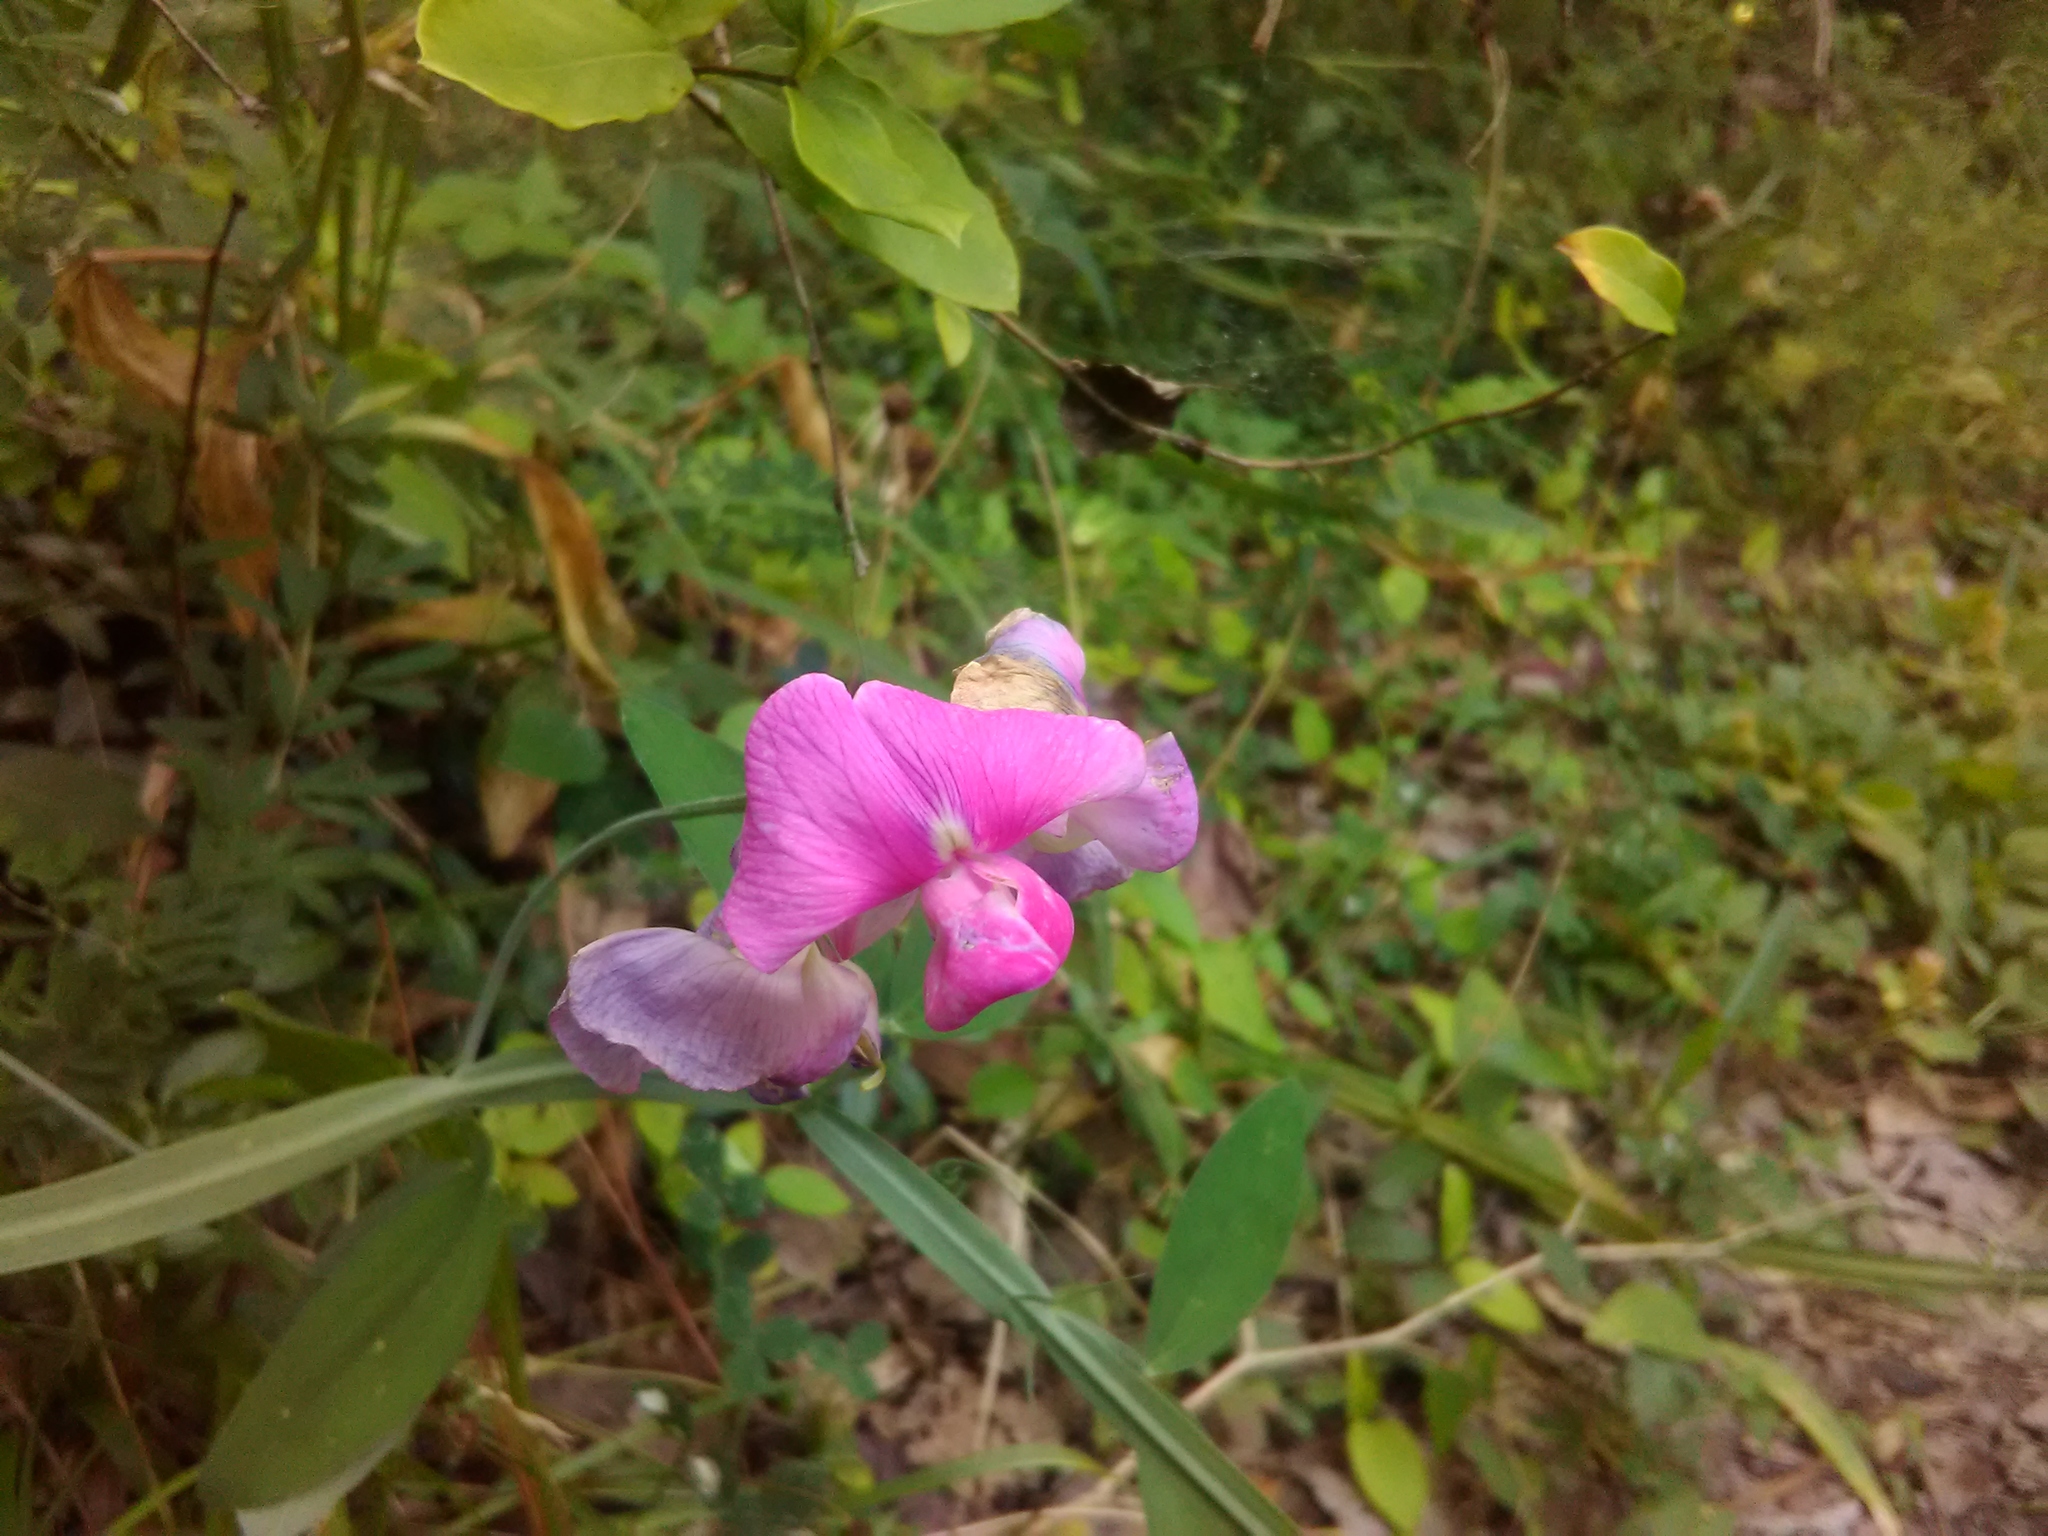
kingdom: Plantae
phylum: Tracheophyta
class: Magnoliopsida
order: Fabales
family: Fabaceae
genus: Lathyrus
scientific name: Lathyrus latifolius
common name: Perennial pea
